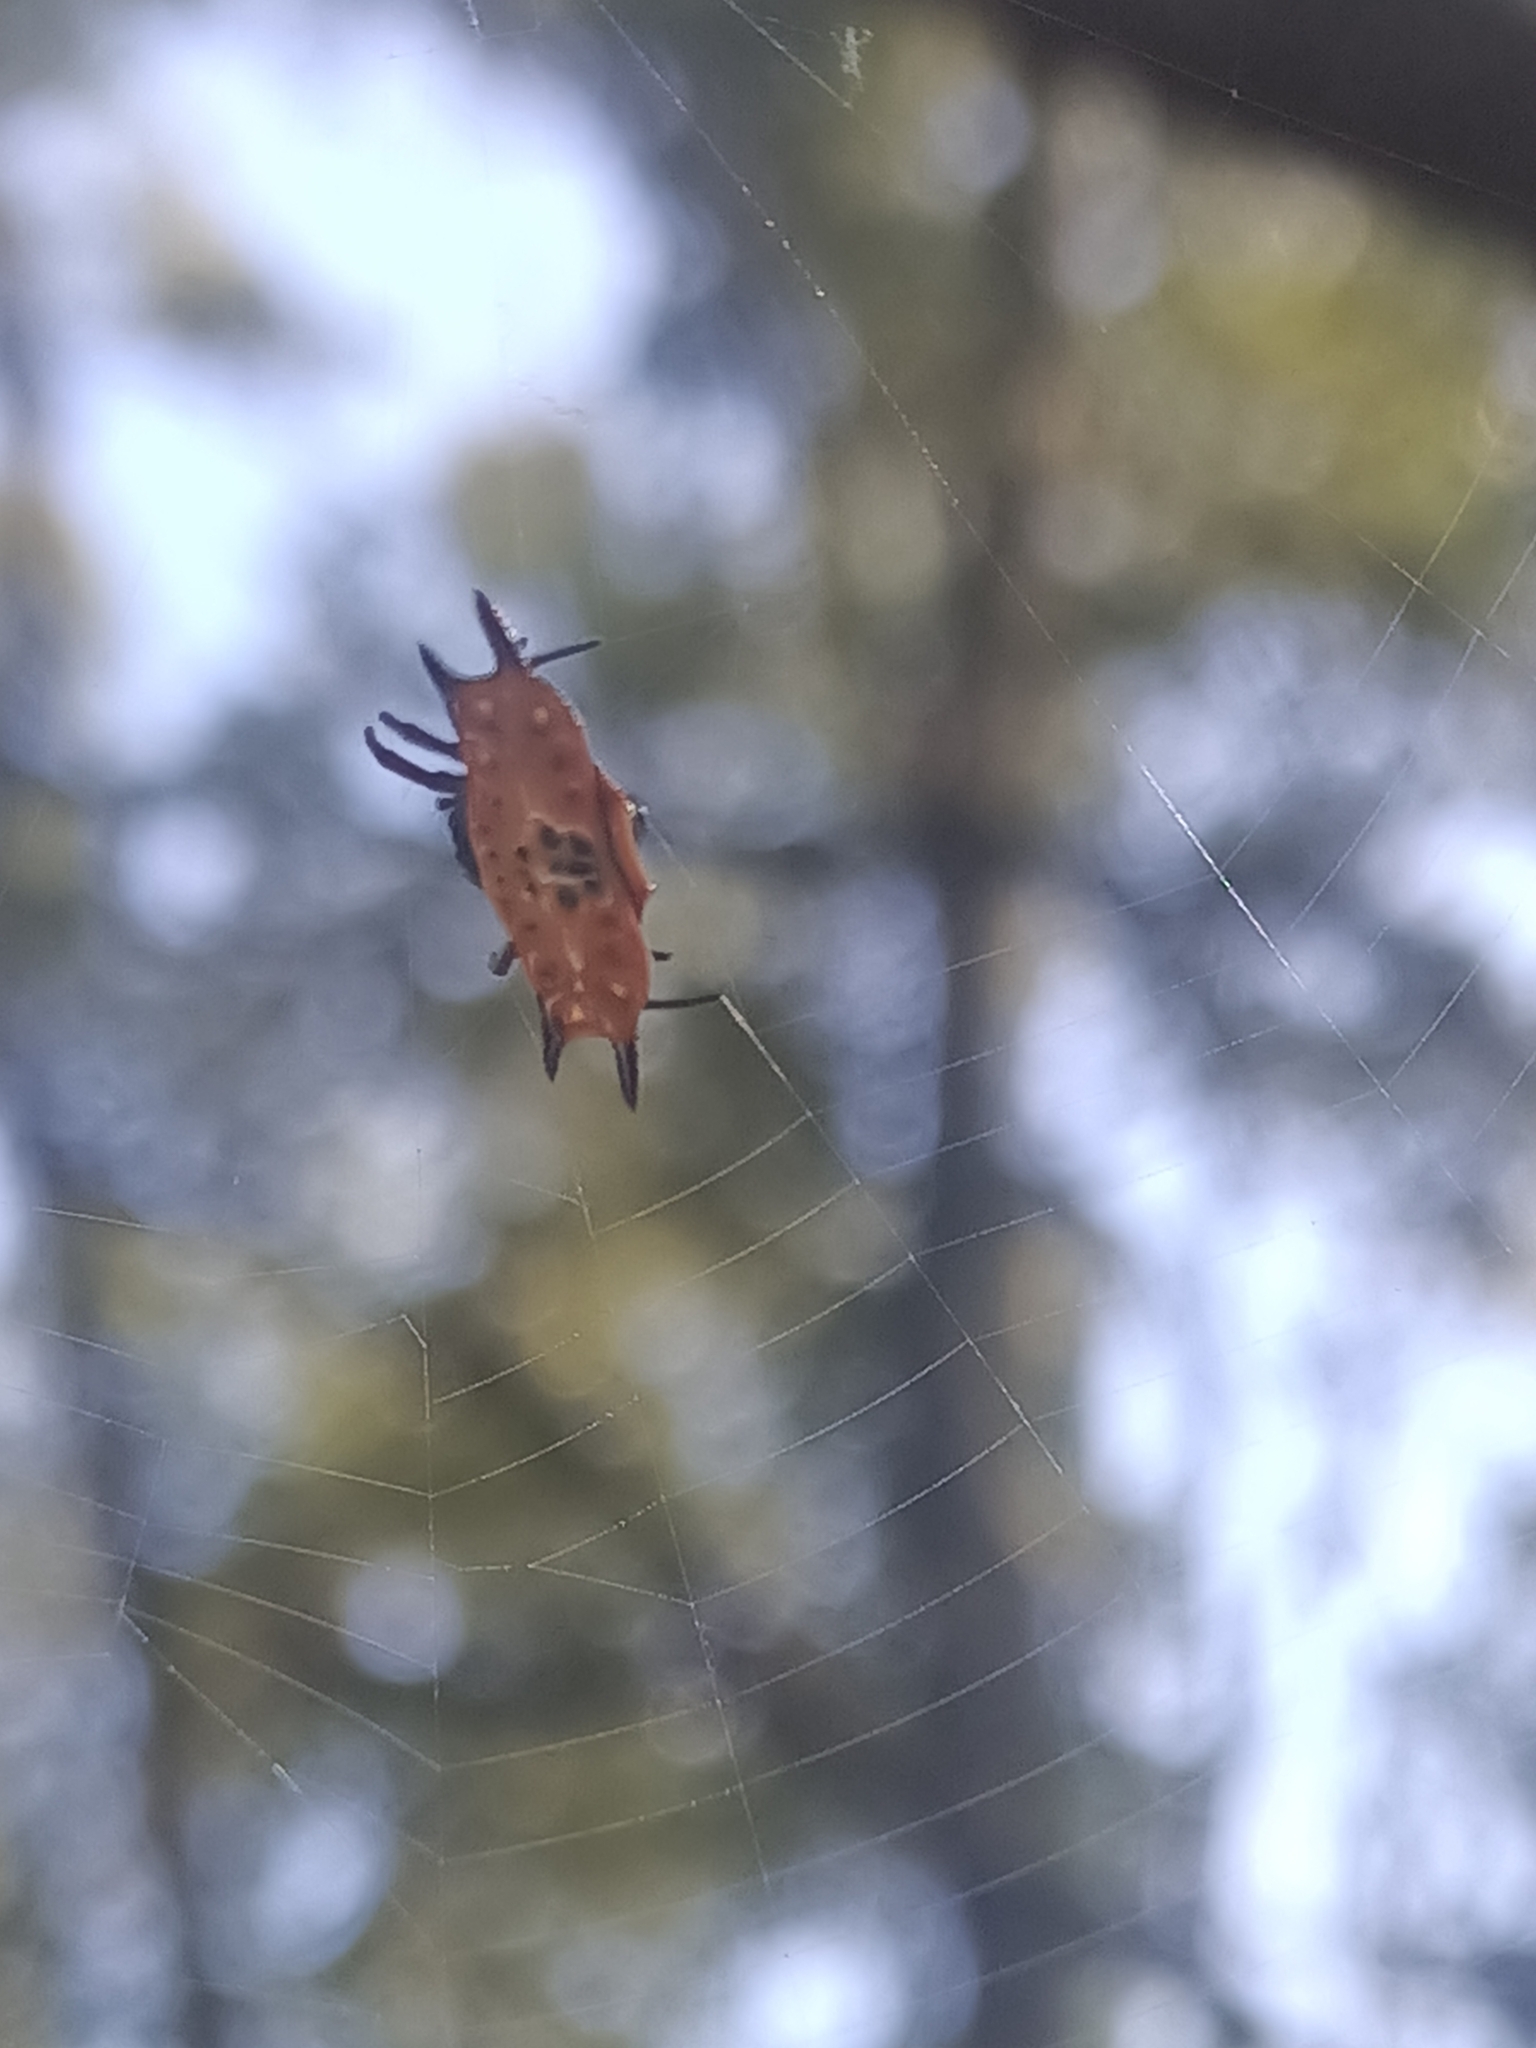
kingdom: Animalia
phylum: Arthropoda
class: Arachnida
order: Araneae
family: Araneidae
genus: Gasteracantha
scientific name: Gasteracantha quadrispinosa
